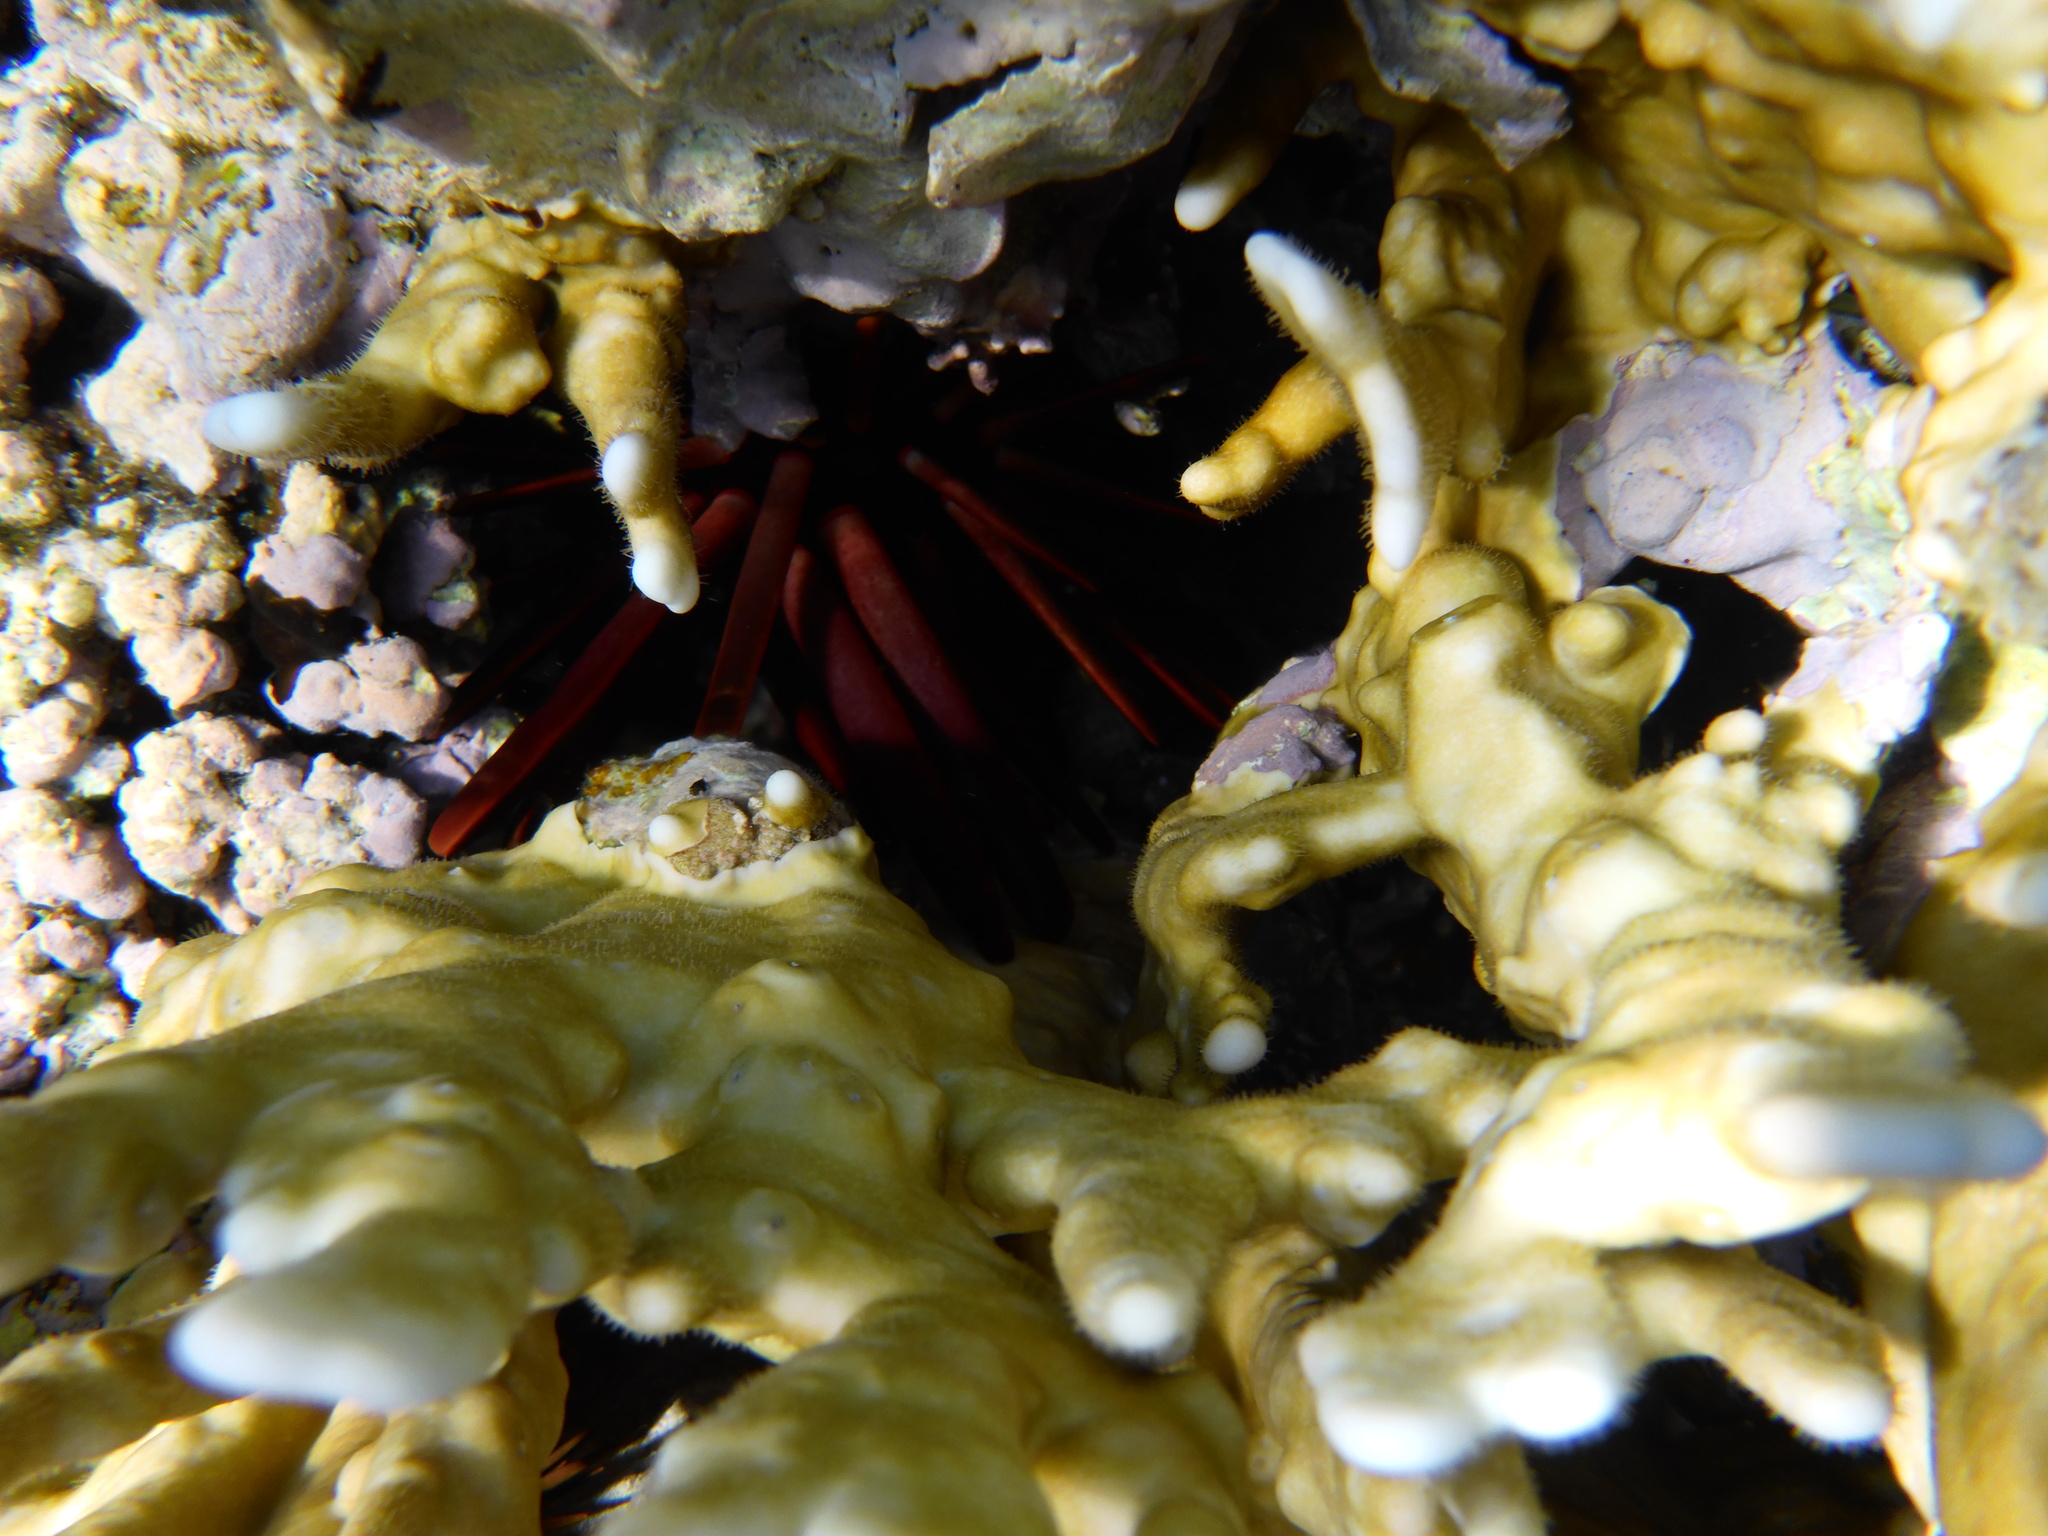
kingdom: Animalia
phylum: Echinodermata
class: Echinoidea
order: Camarodonta
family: Echinometridae
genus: Heterocentrotus
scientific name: Heterocentrotus mamillatus
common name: Slate pencil urchin
